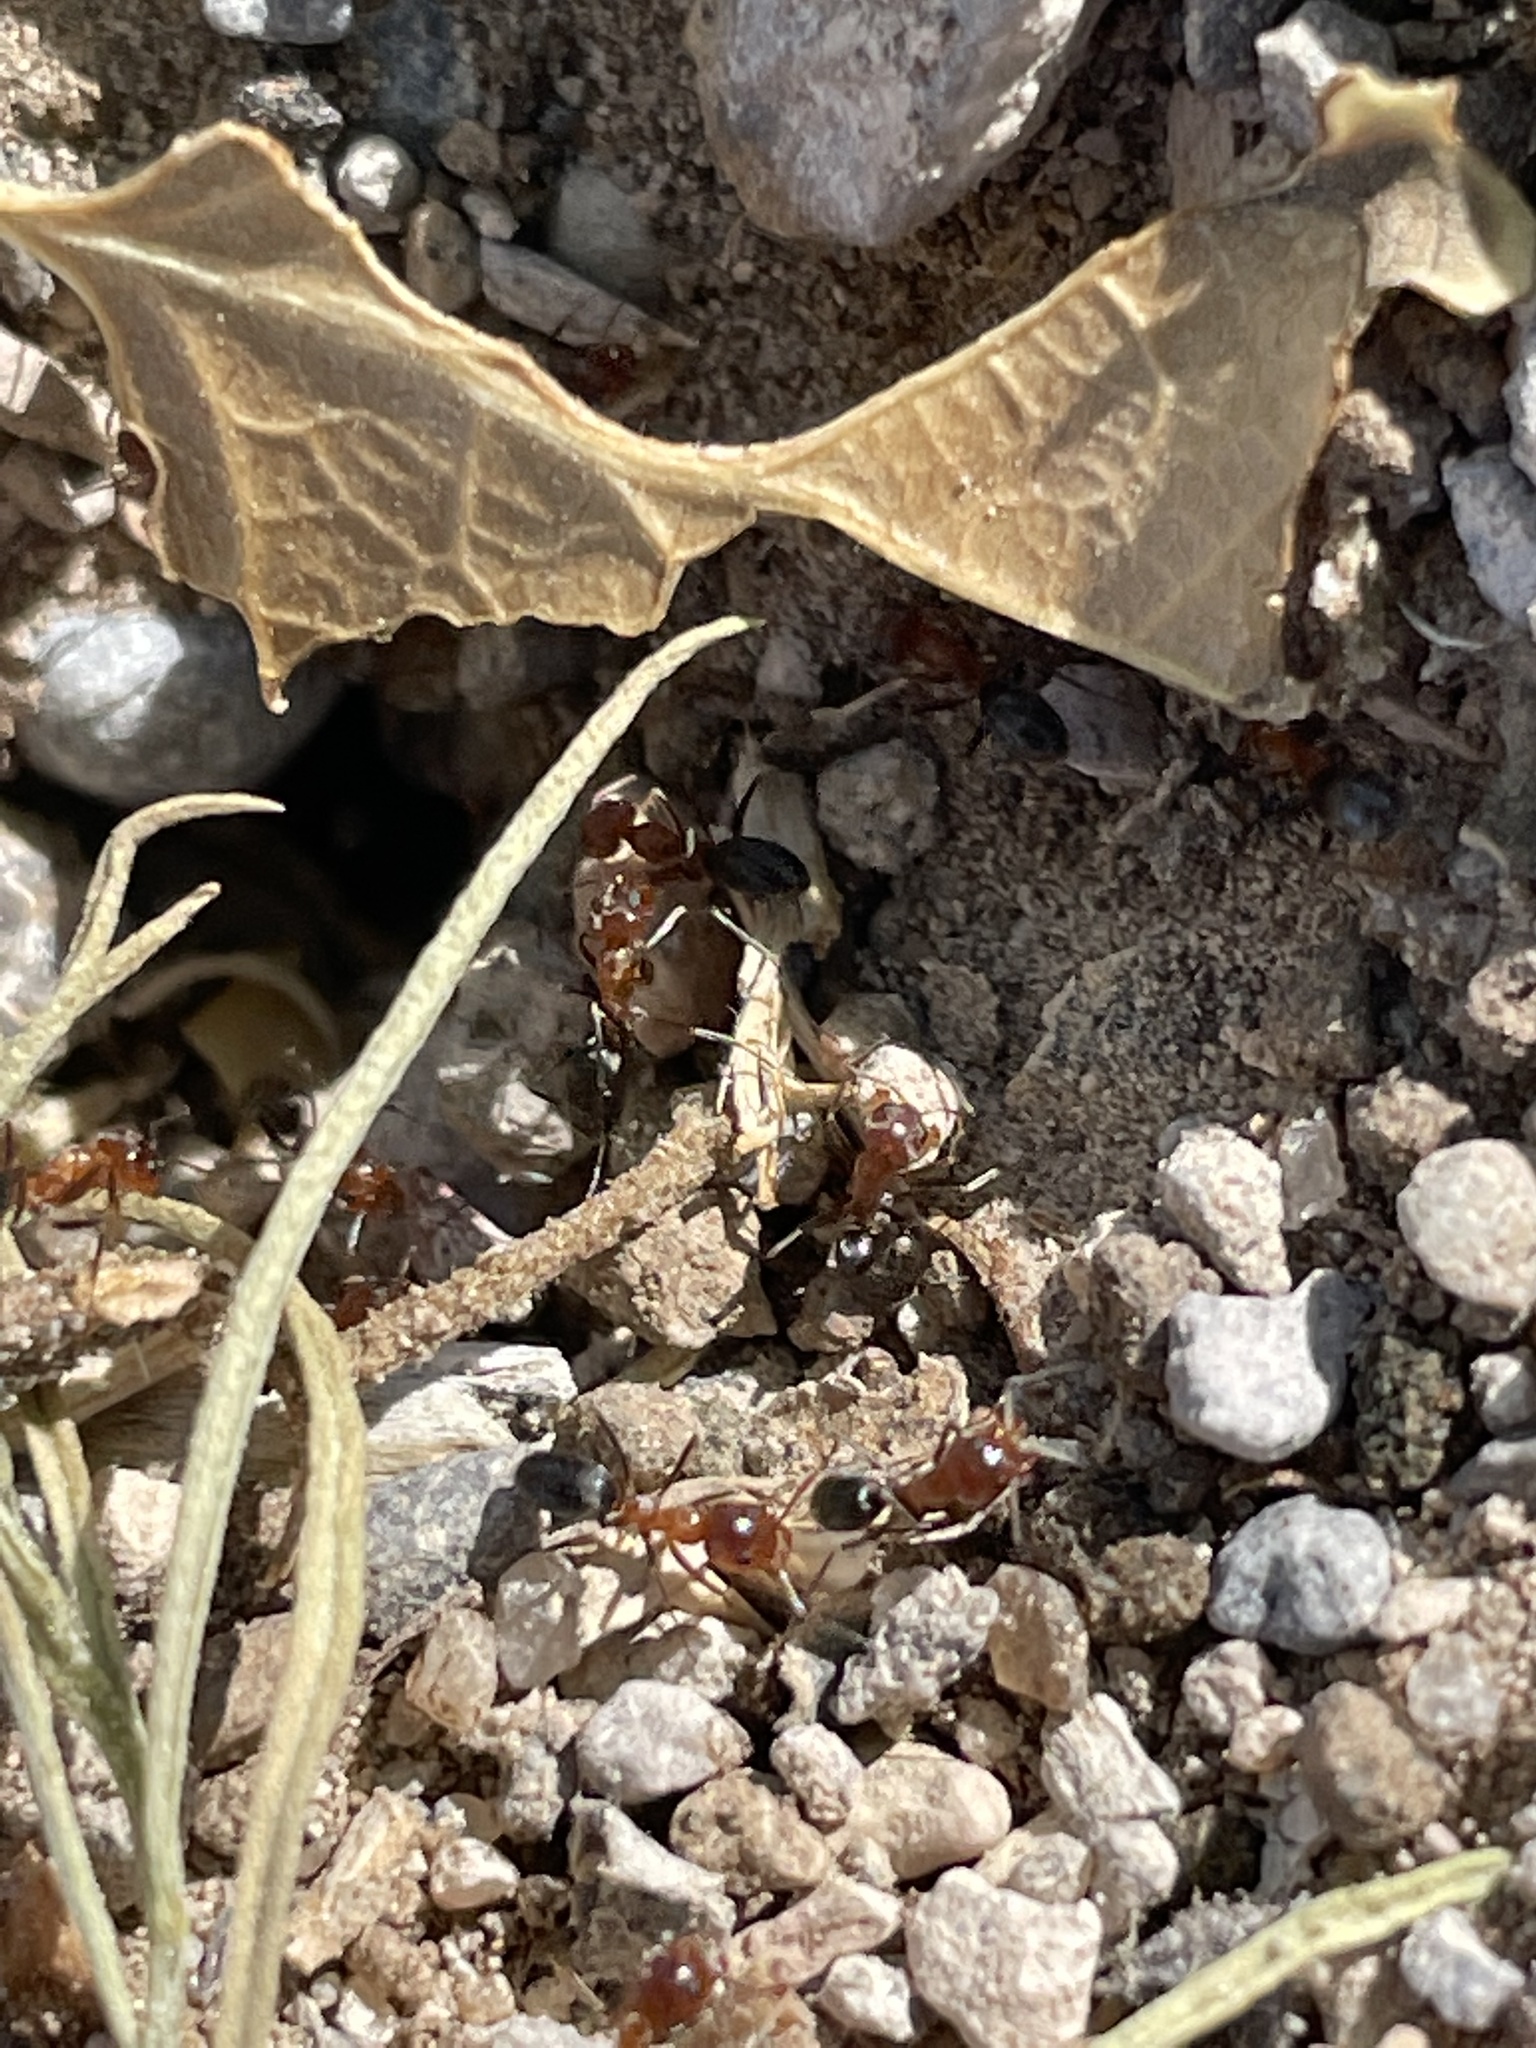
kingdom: Animalia
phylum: Arthropoda
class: Insecta
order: Hymenoptera
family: Formicidae
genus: Dorymyrmex
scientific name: Dorymyrmex bicolor
